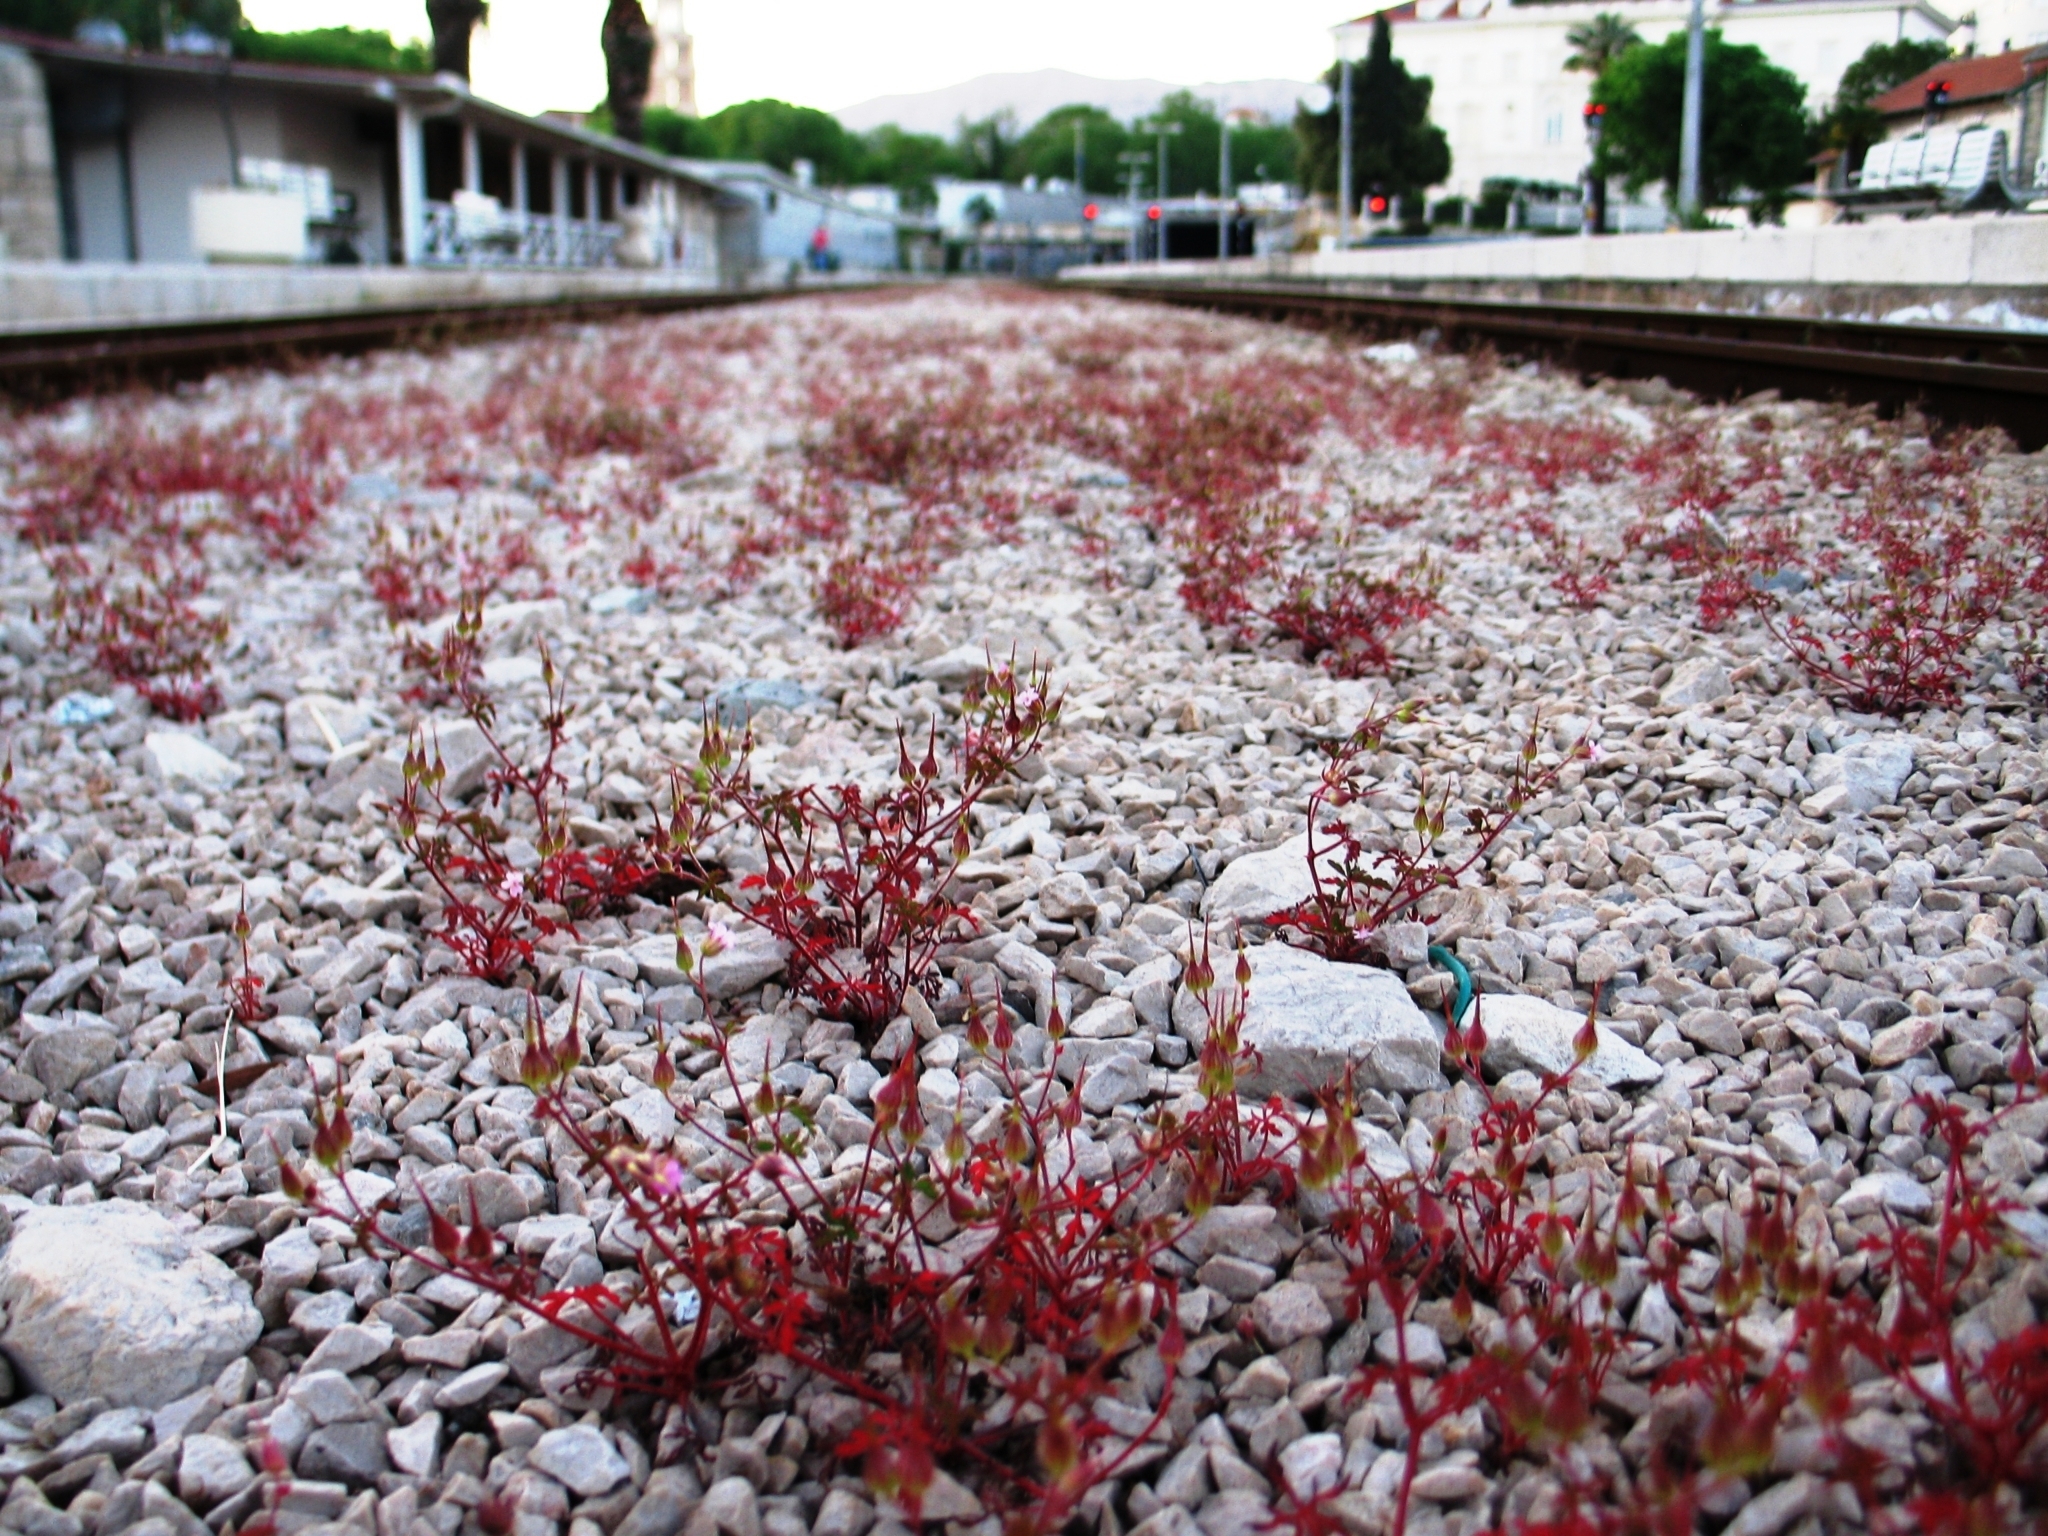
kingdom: Plantae
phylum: Tracheophyta
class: Magnoliopsida
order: Geraniales
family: Geraniaceae
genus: Geranium
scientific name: Geranium purpureum
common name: Little-robin
